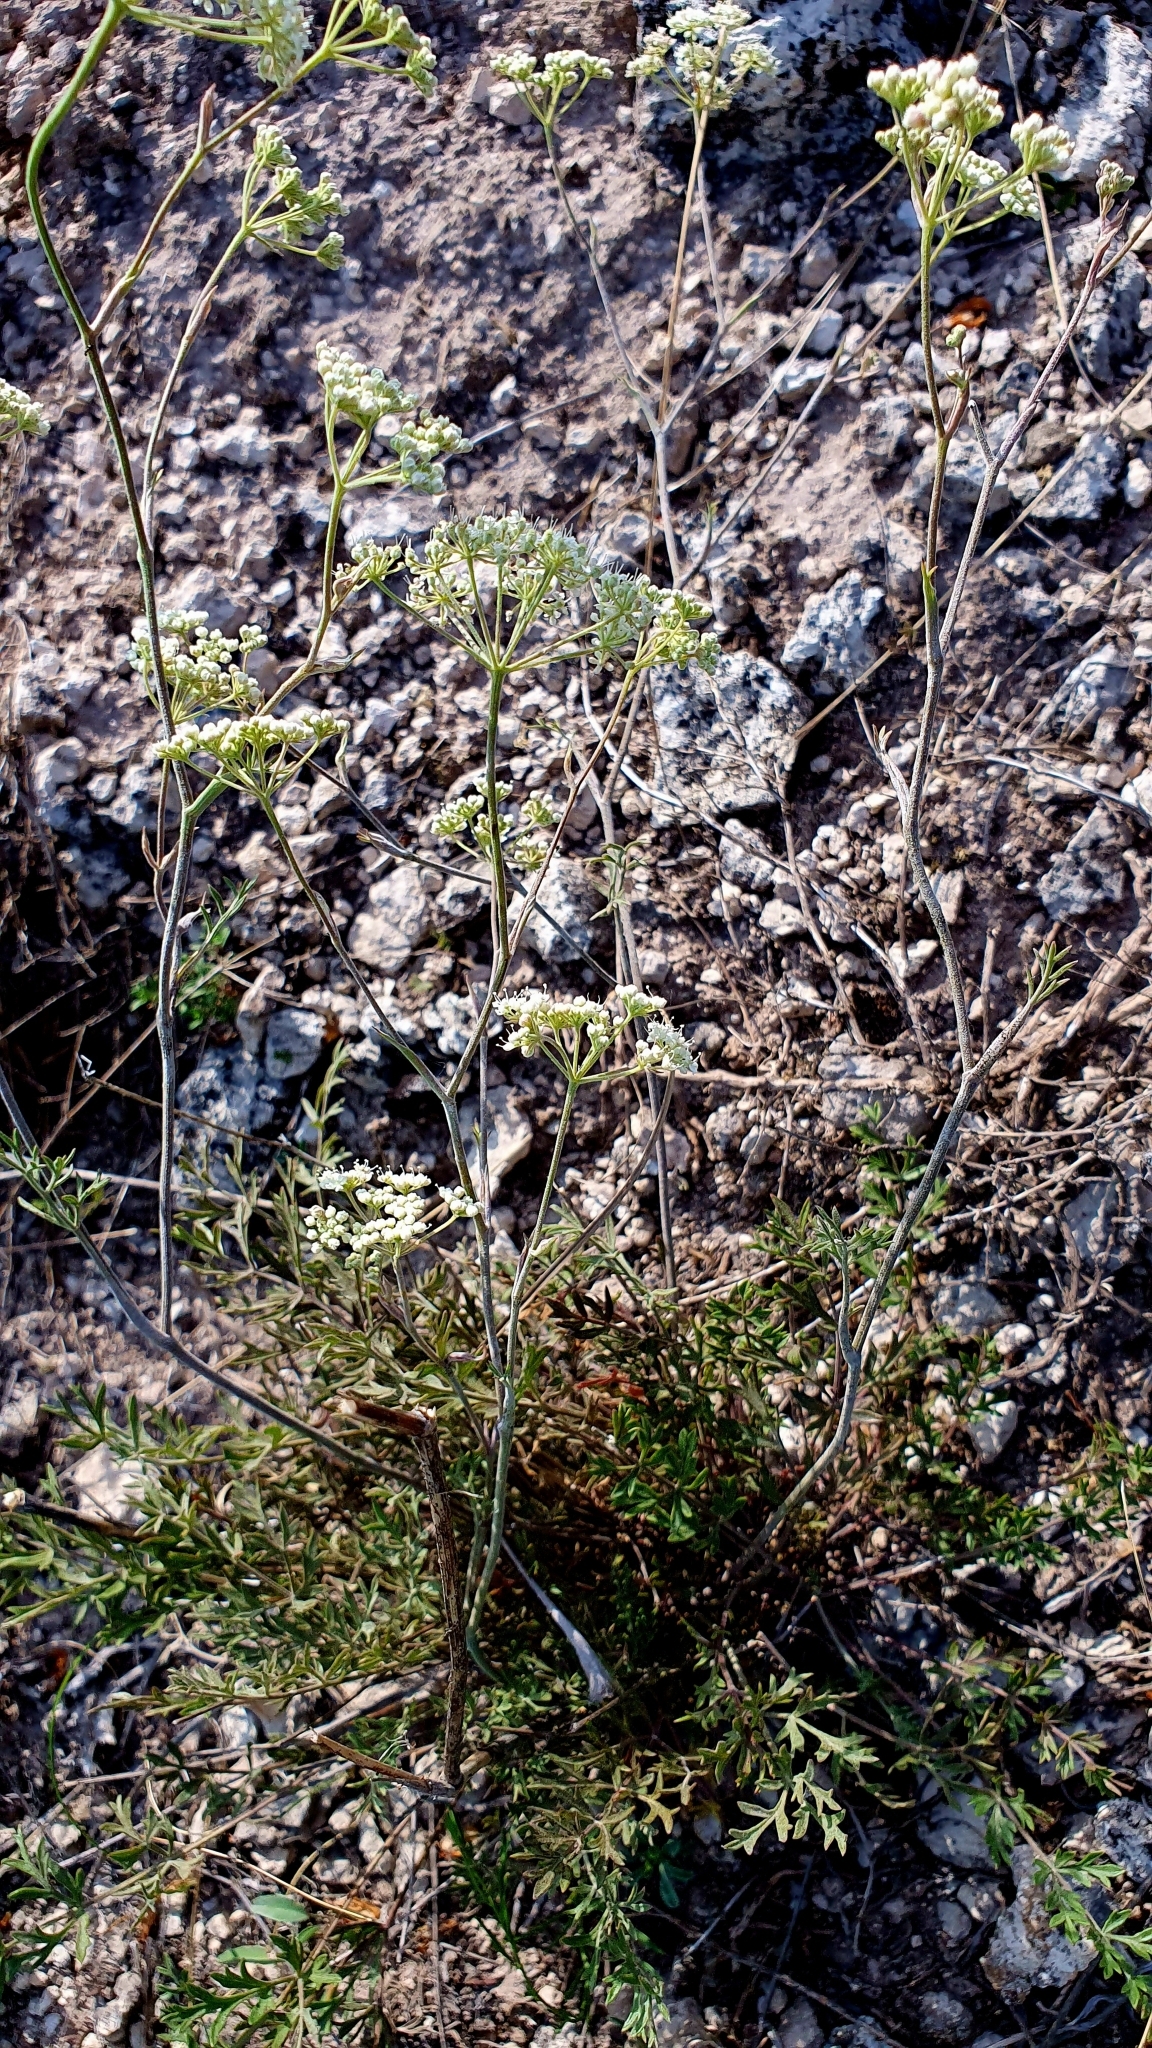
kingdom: Plantae
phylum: Tracheophyta
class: Magnoliopsida
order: Apiales
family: Apiaceae
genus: Pimpinella
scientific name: Pimpinella tragium
